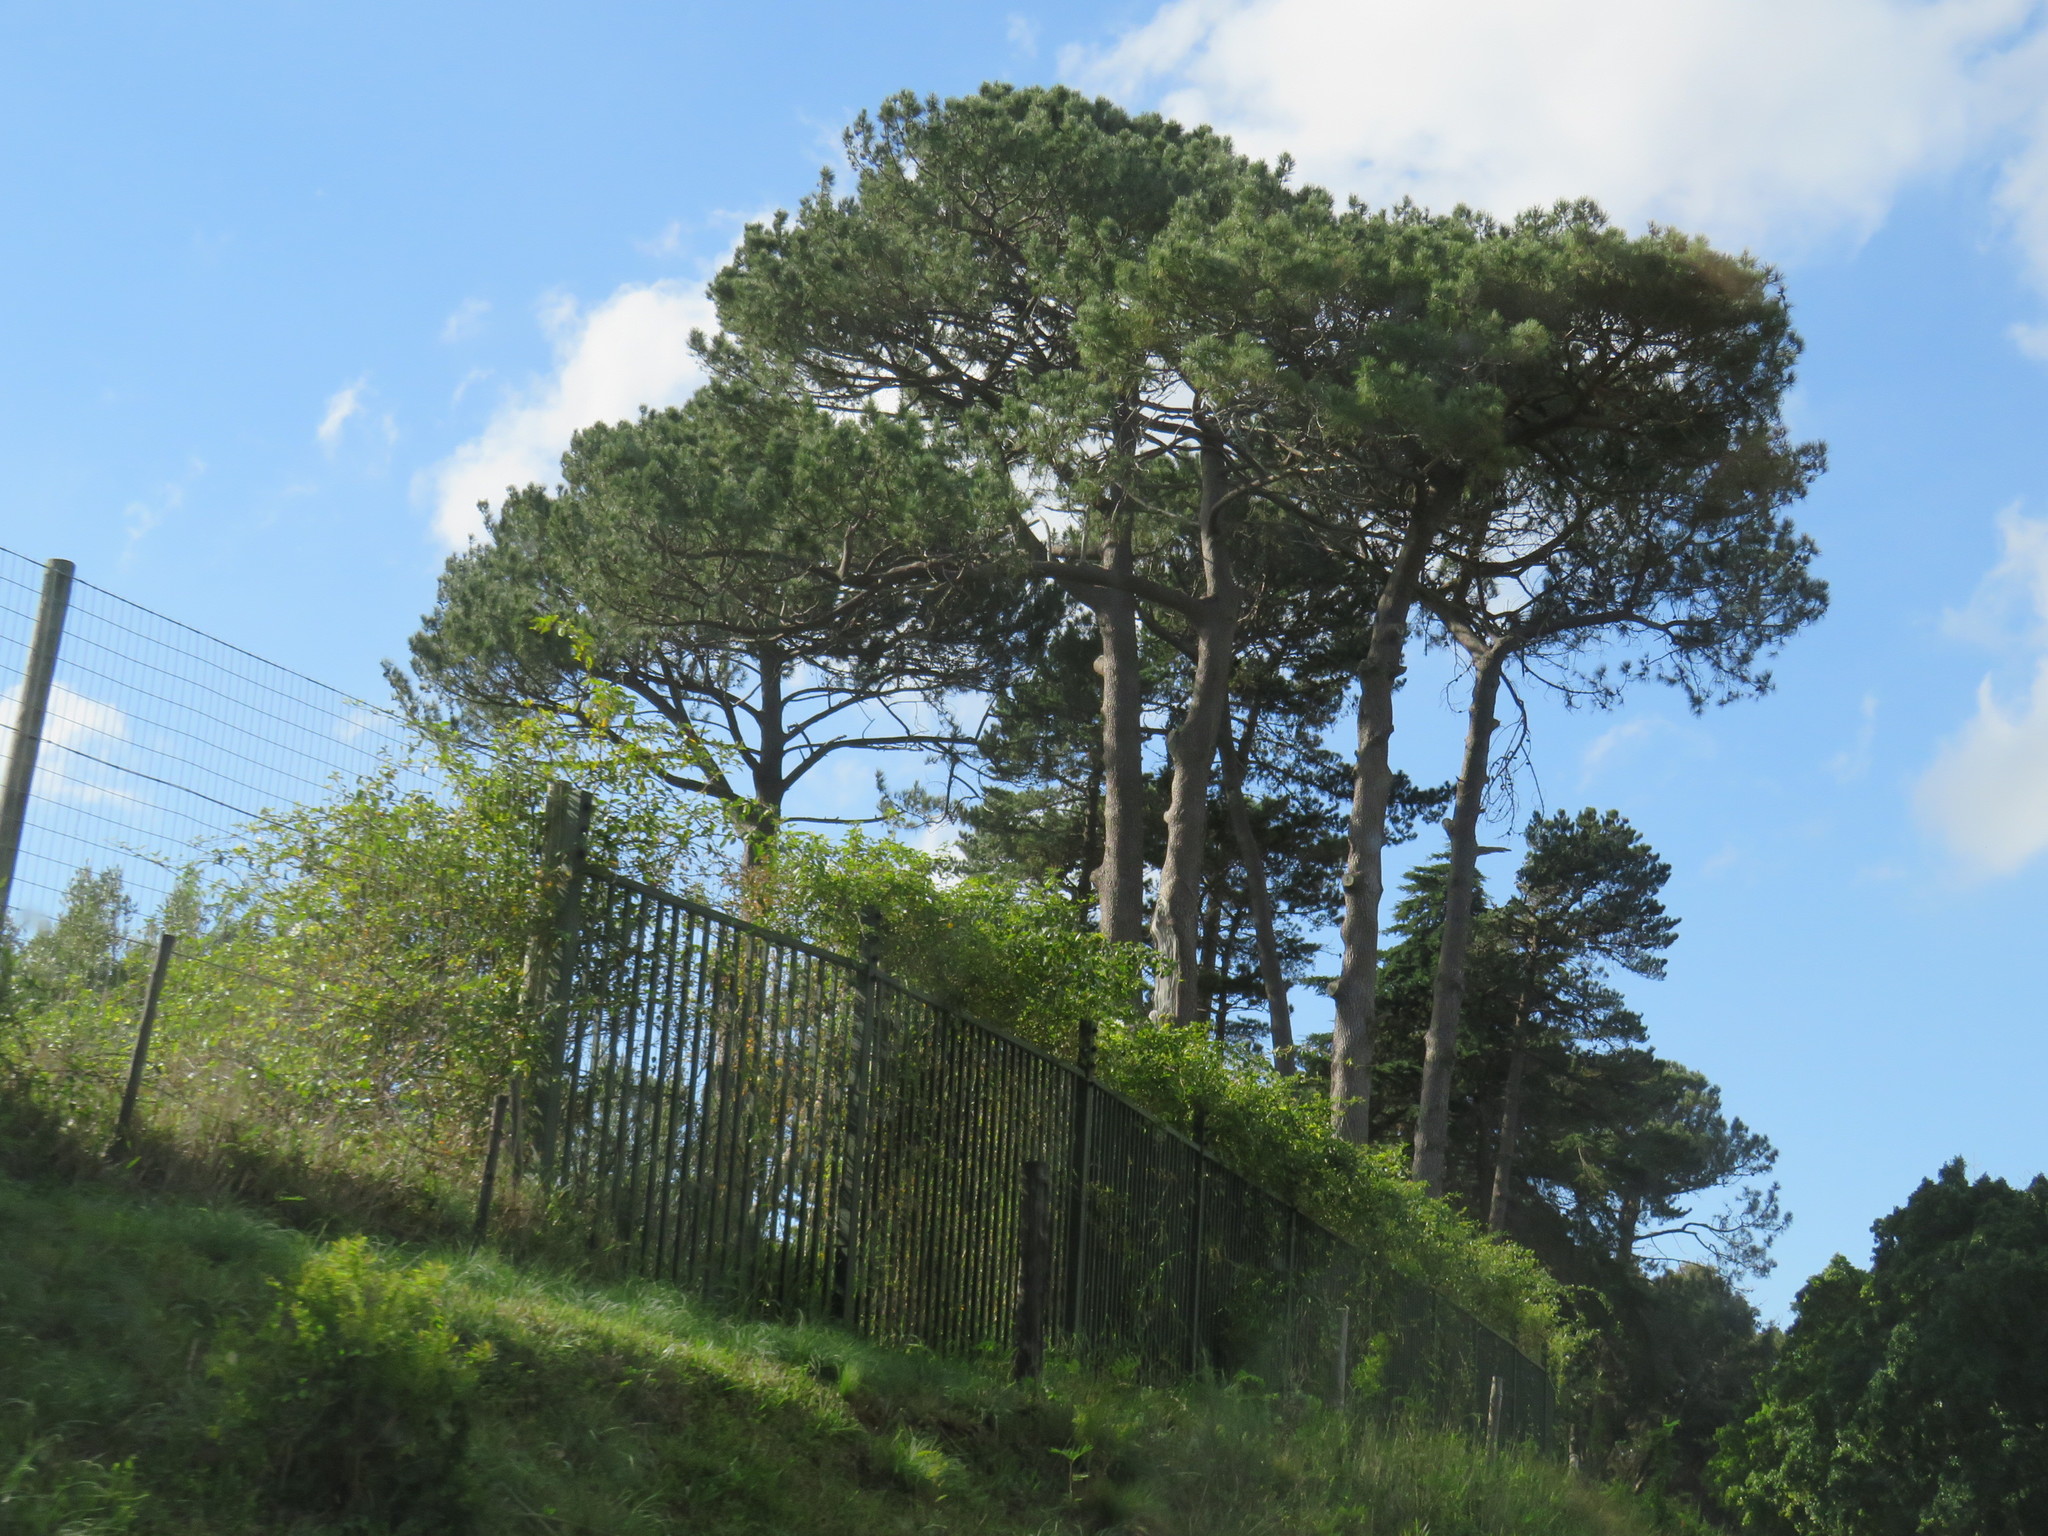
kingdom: Plantae
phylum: Tracheophyta
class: Pinopsida
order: Pinales
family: Pinaceae
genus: Pinus
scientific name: Pinus pinaster
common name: Maritime pine
